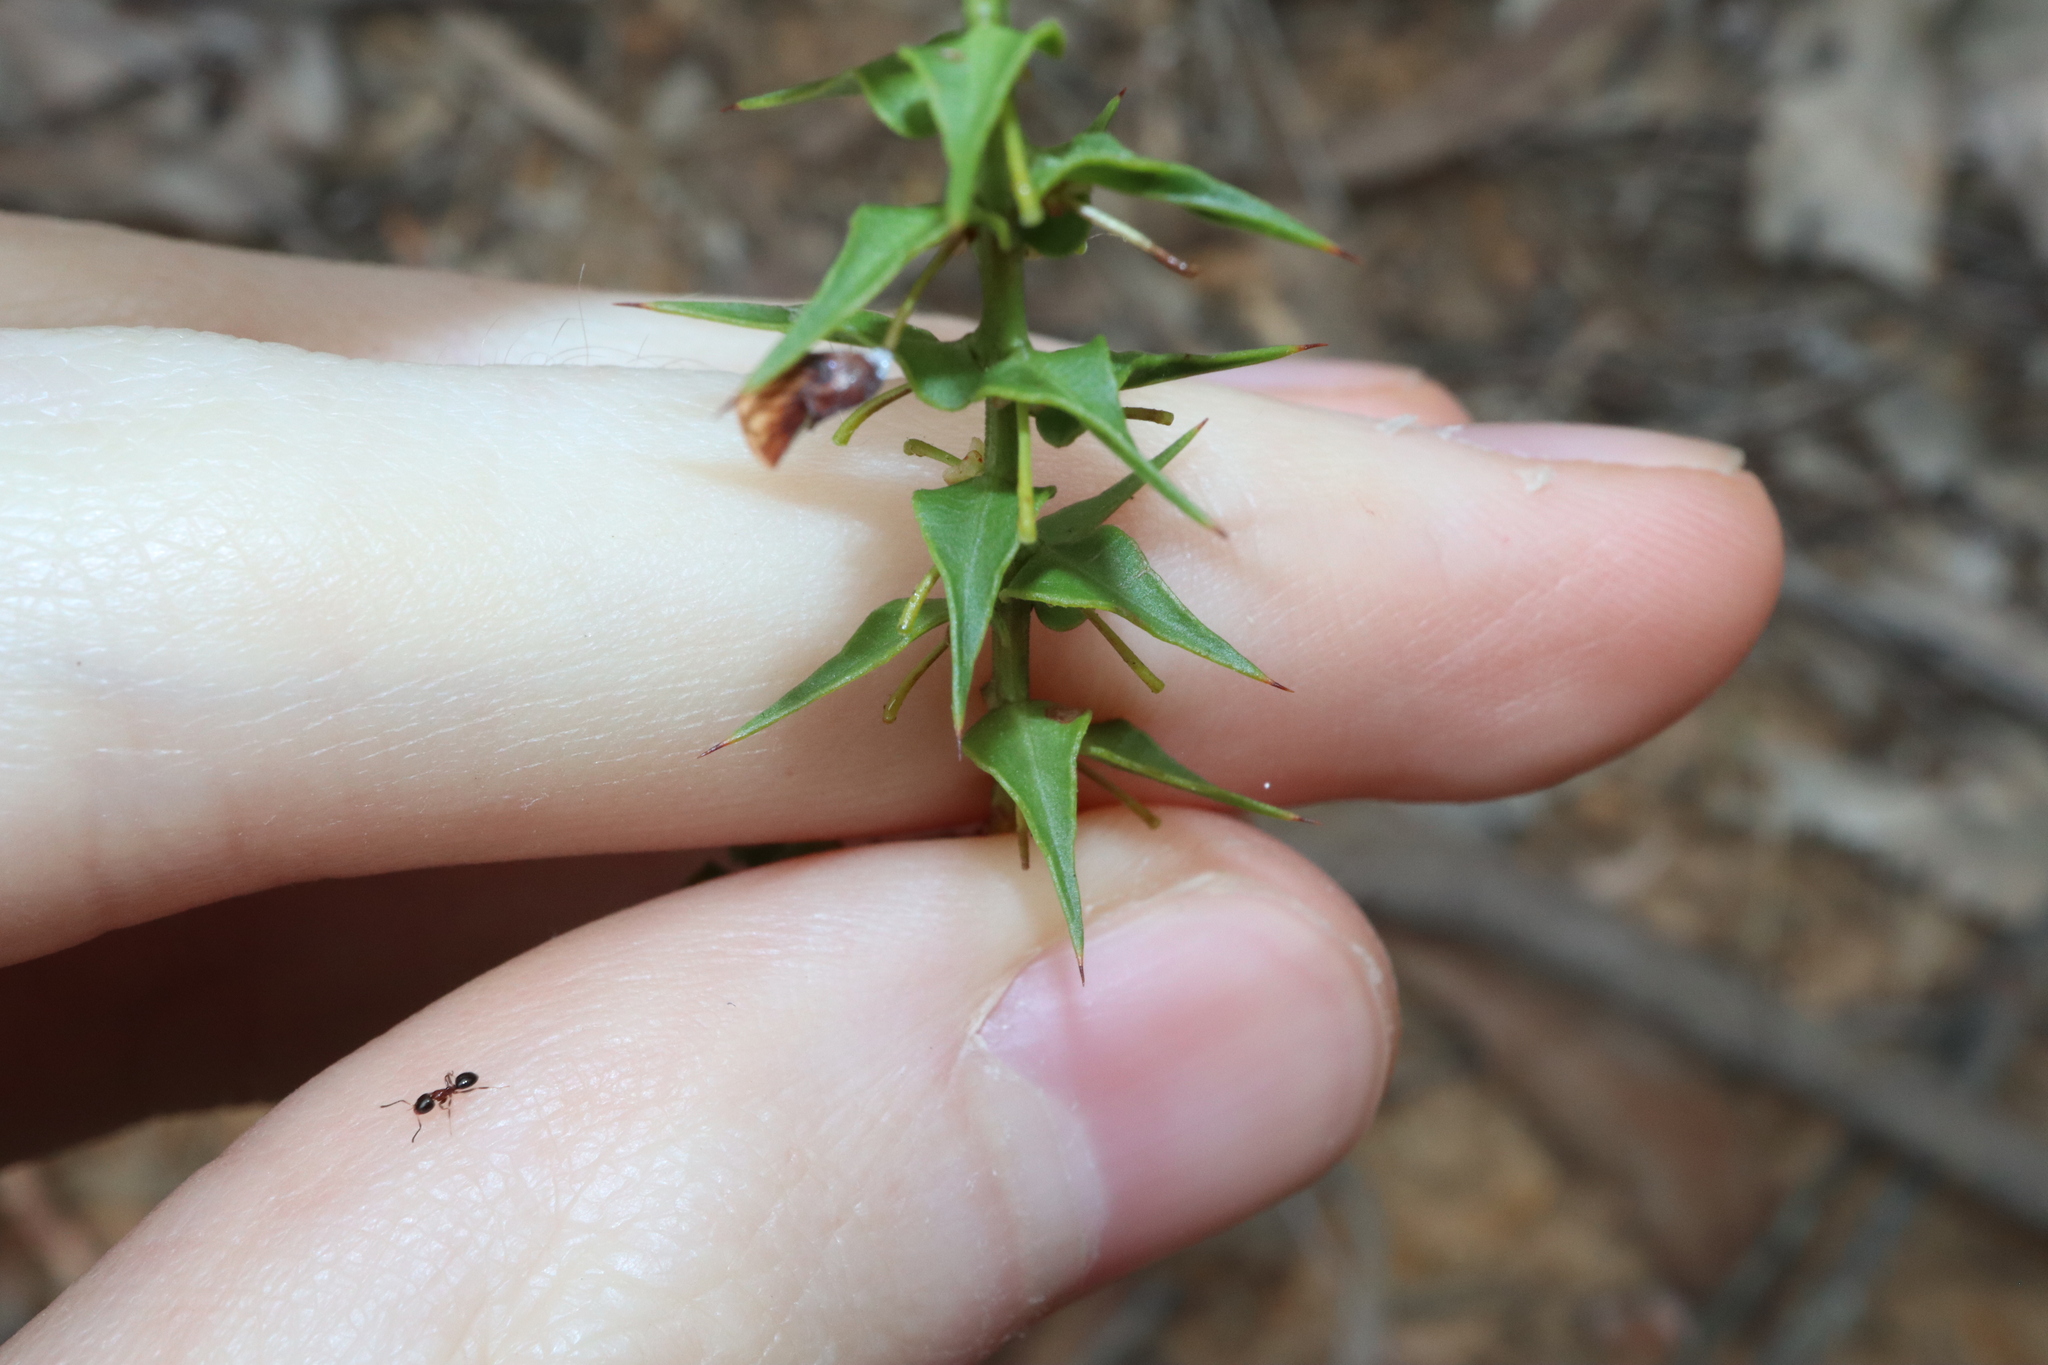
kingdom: Plantae
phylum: Tracheophyta
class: Magnoliopsida
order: Fabales
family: Fabaceae
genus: Daviesia
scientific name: Daviesia squarrosa
